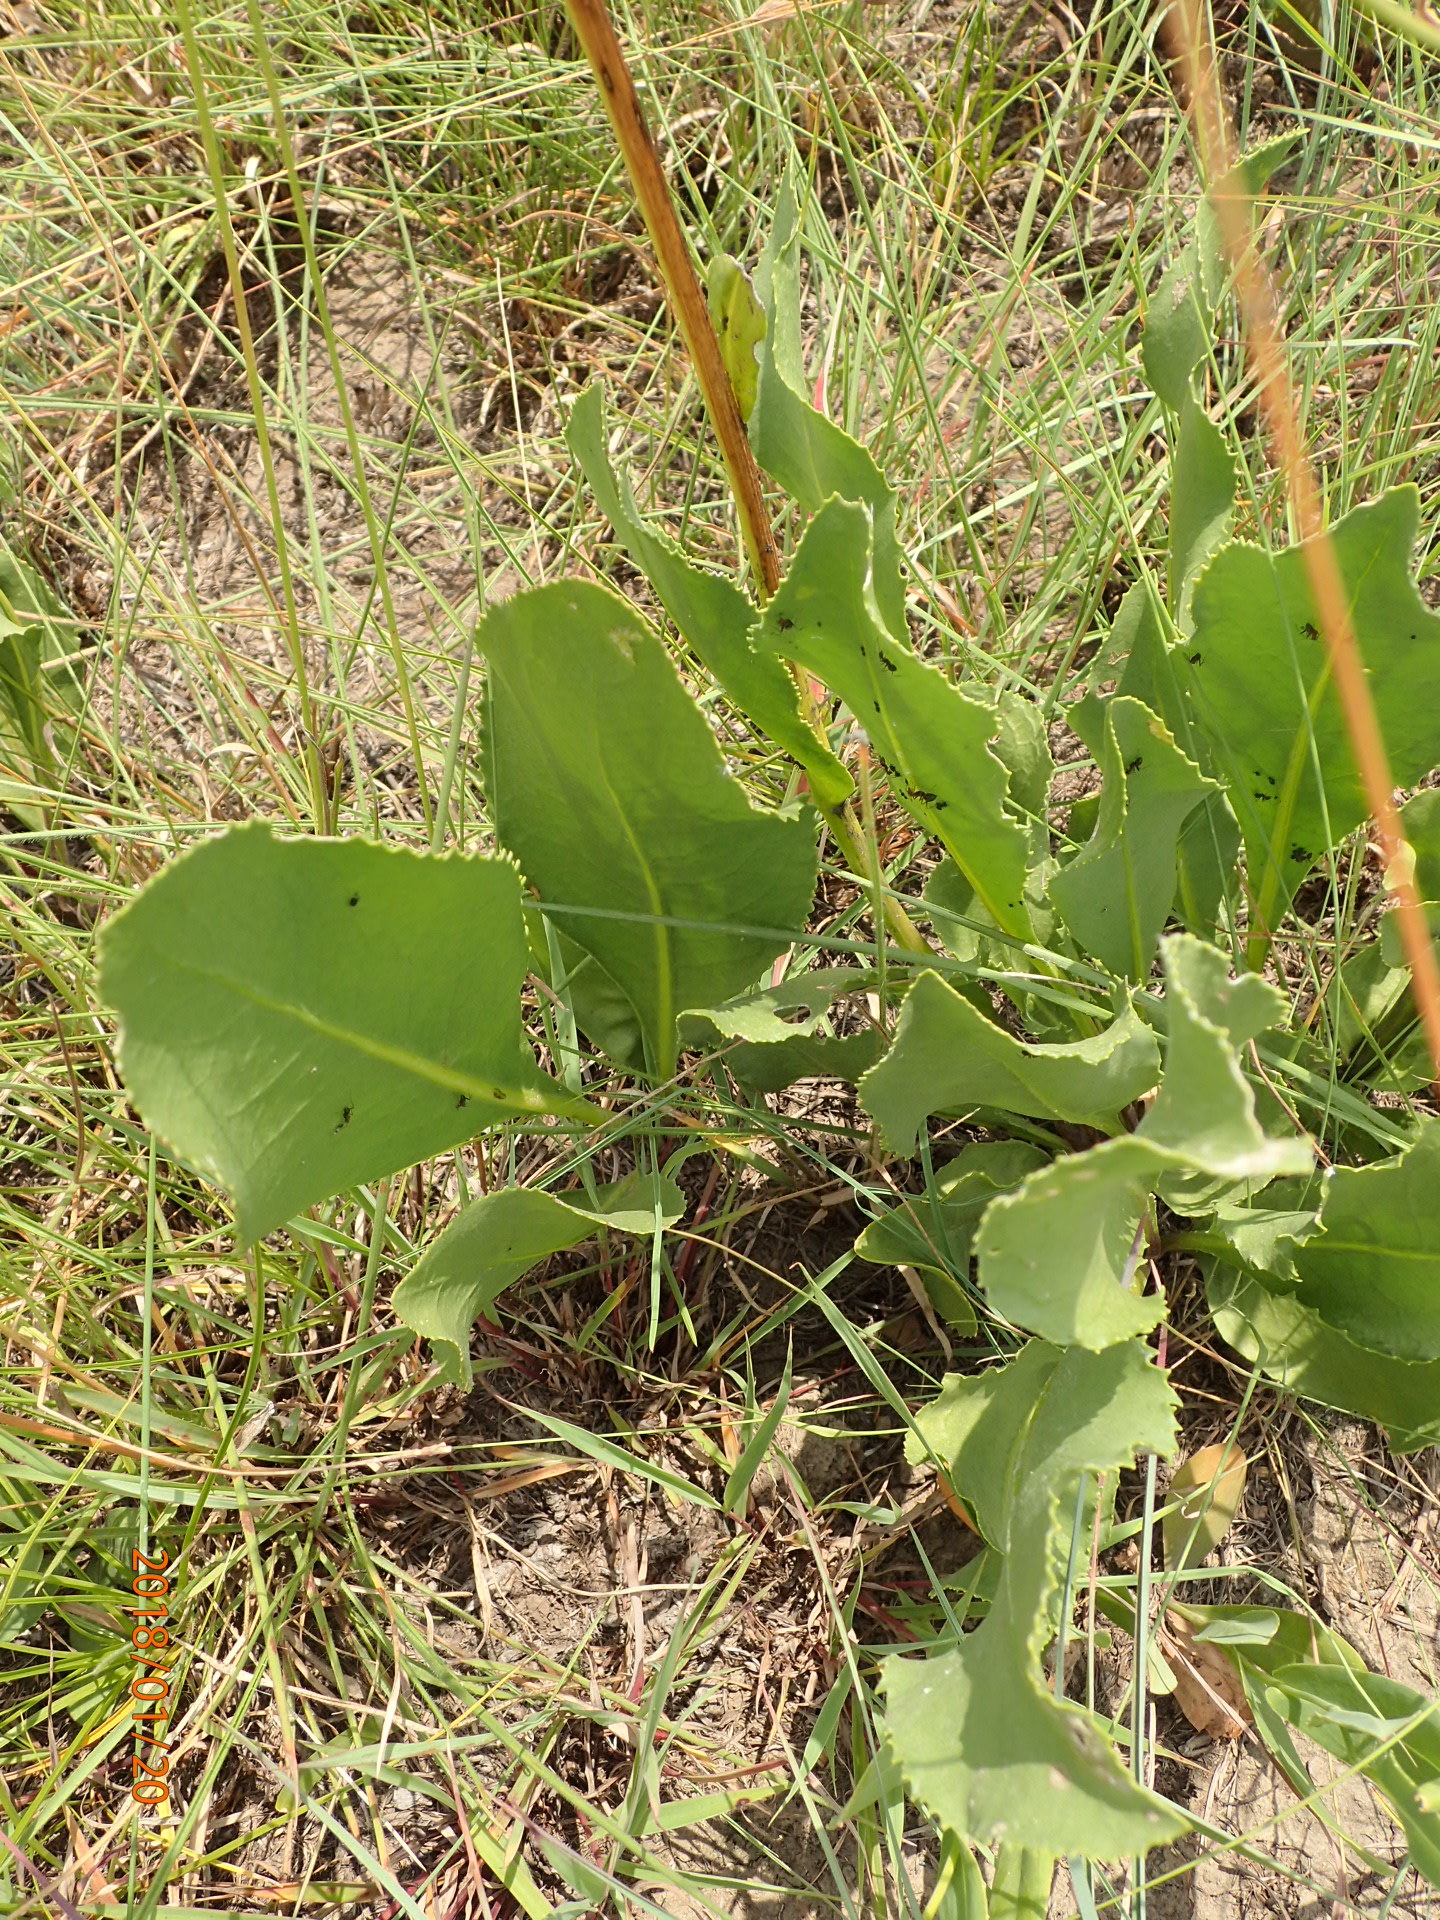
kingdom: Plantae
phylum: Tracheophyta
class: Magnoliopsida
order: Asterales
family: Asteraceae
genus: Senecio
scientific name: Senecio coronatus
